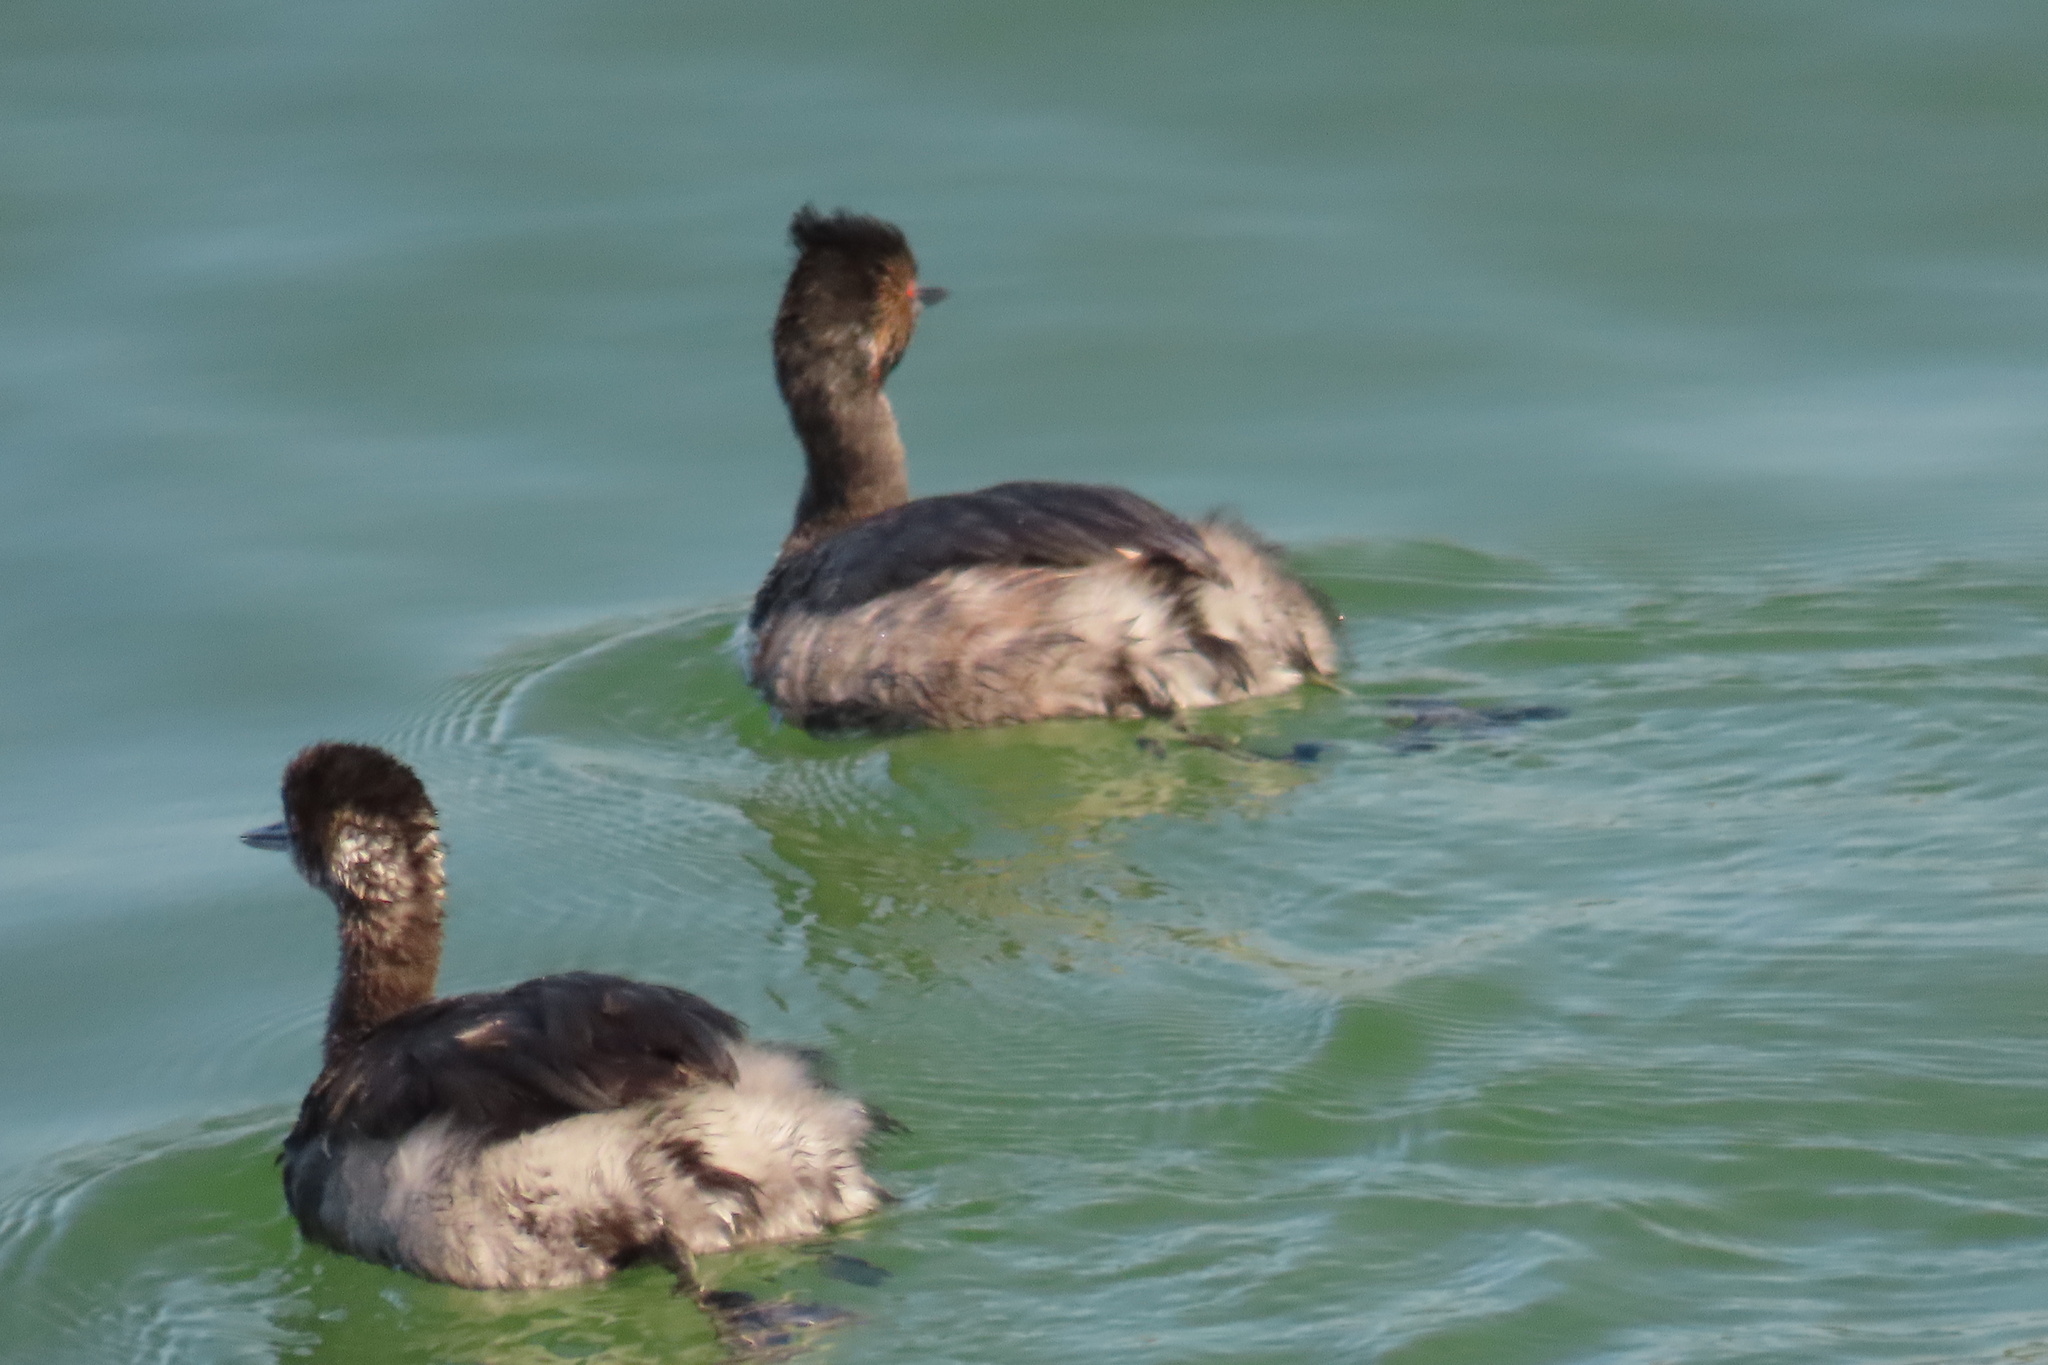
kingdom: Animalia
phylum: Chordata
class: Aves
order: Podicipediformes
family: Podicipedidae
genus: Podiceps
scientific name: Podiceps nigricollis
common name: Black-necked grebe
